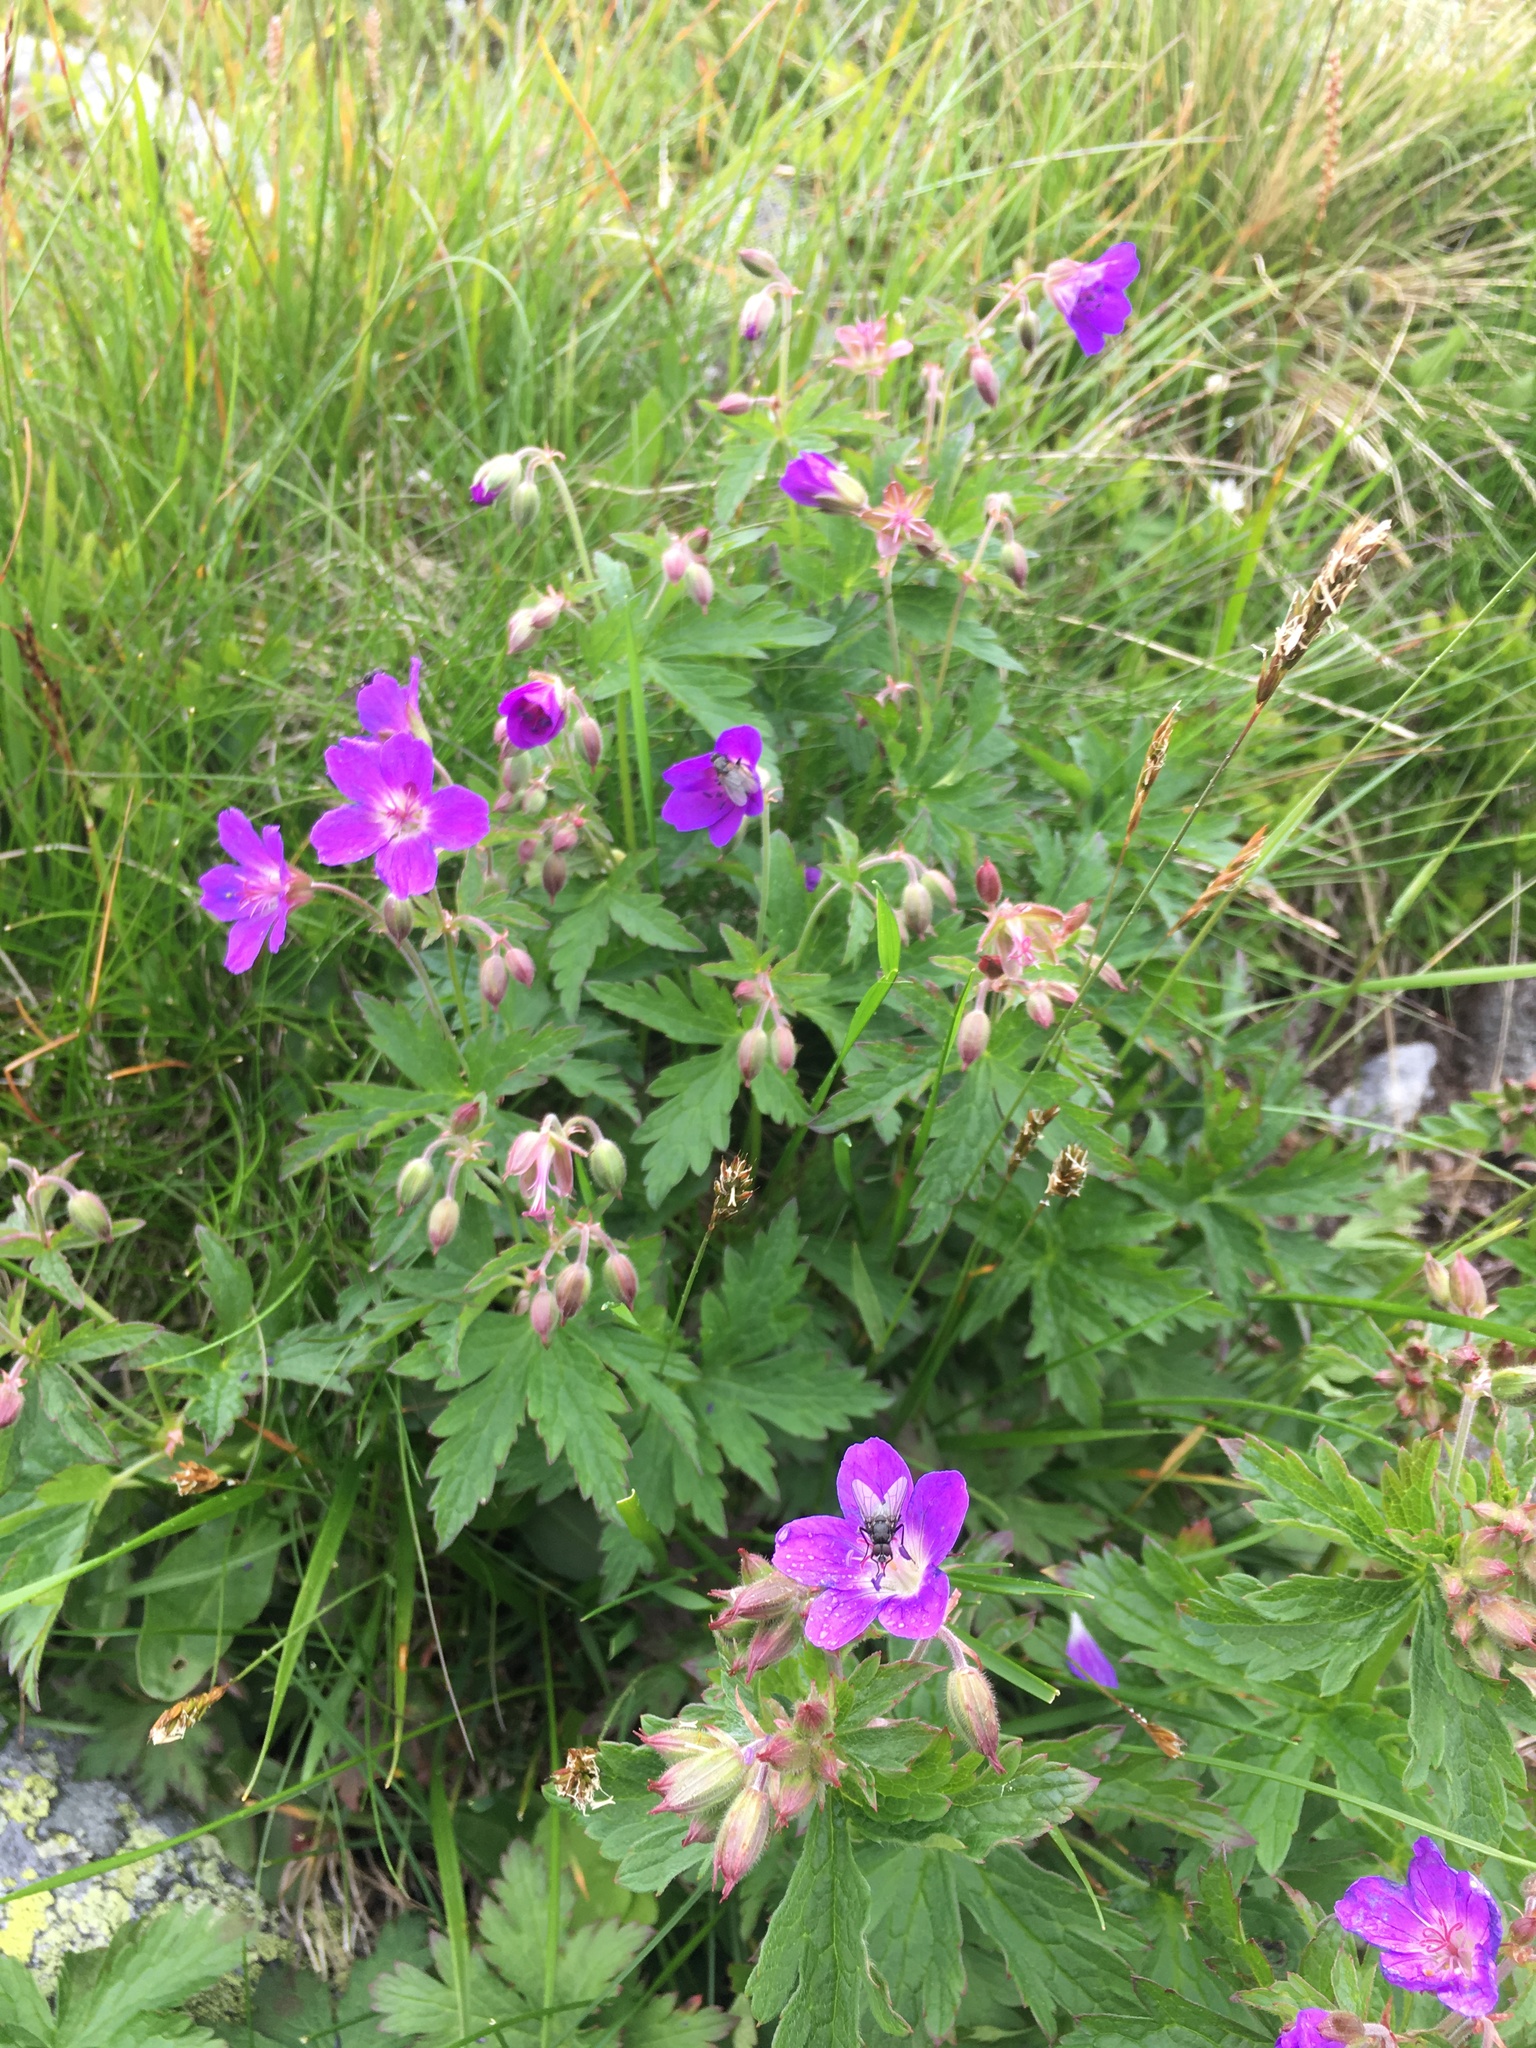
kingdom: Plantae
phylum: Tracheophyta
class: Magnoliopsida
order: Geraniales
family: Geraniaceae
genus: Geranium
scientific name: Geranium sylvaticum
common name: Wood crane's-bill
